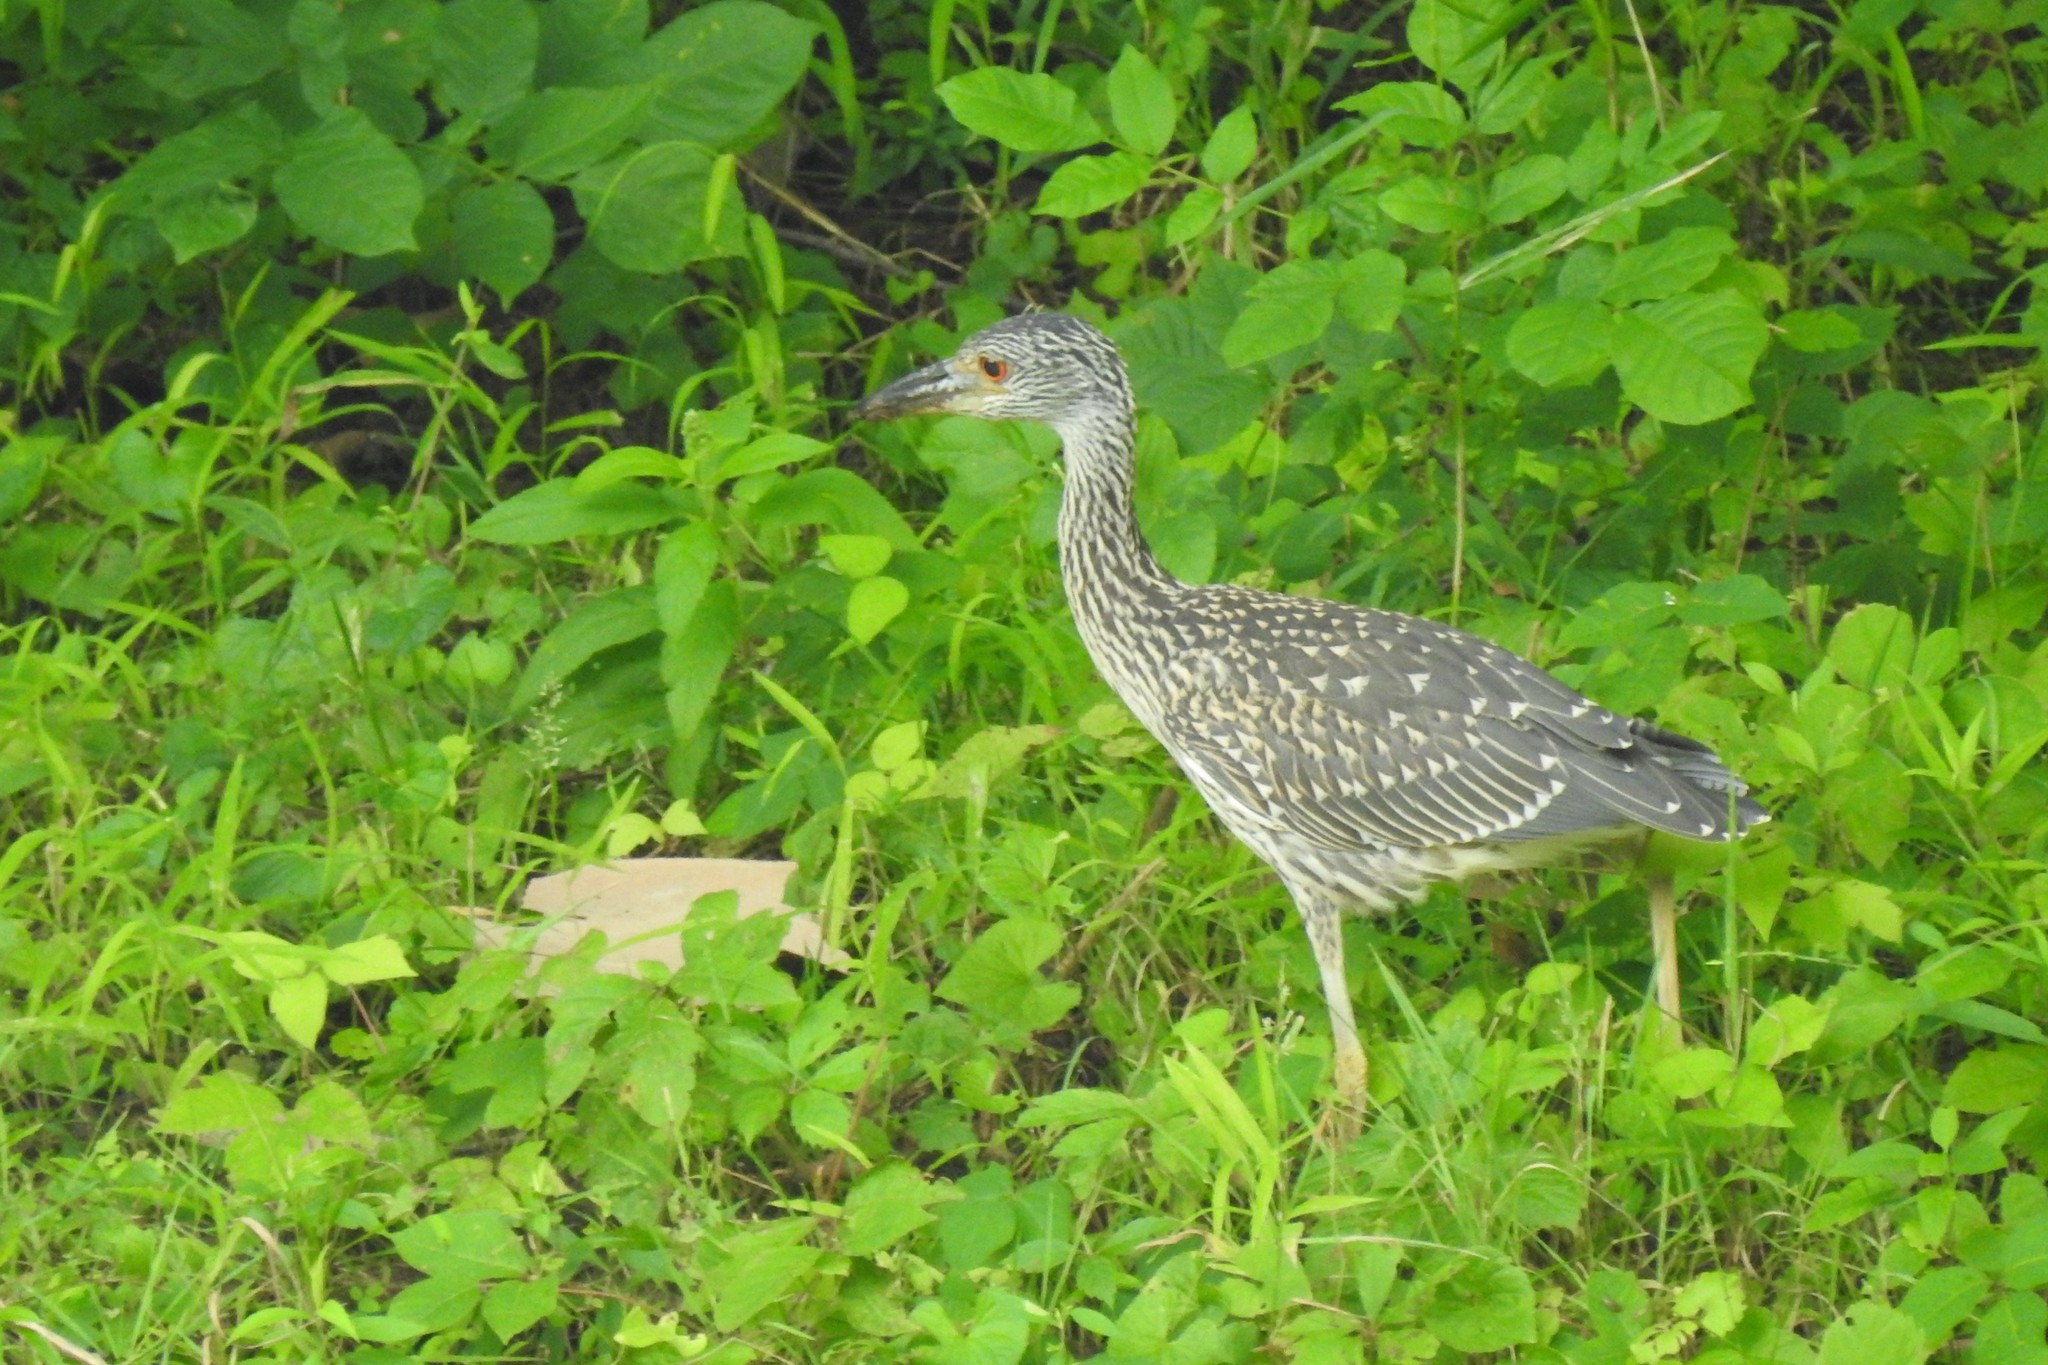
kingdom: Animalia
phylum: Chordata
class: Aves
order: Pelecaniformes
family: Ardeidae
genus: Nyctanassa
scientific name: Nyctanassa violacea
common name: Yellow-crowned night heron
